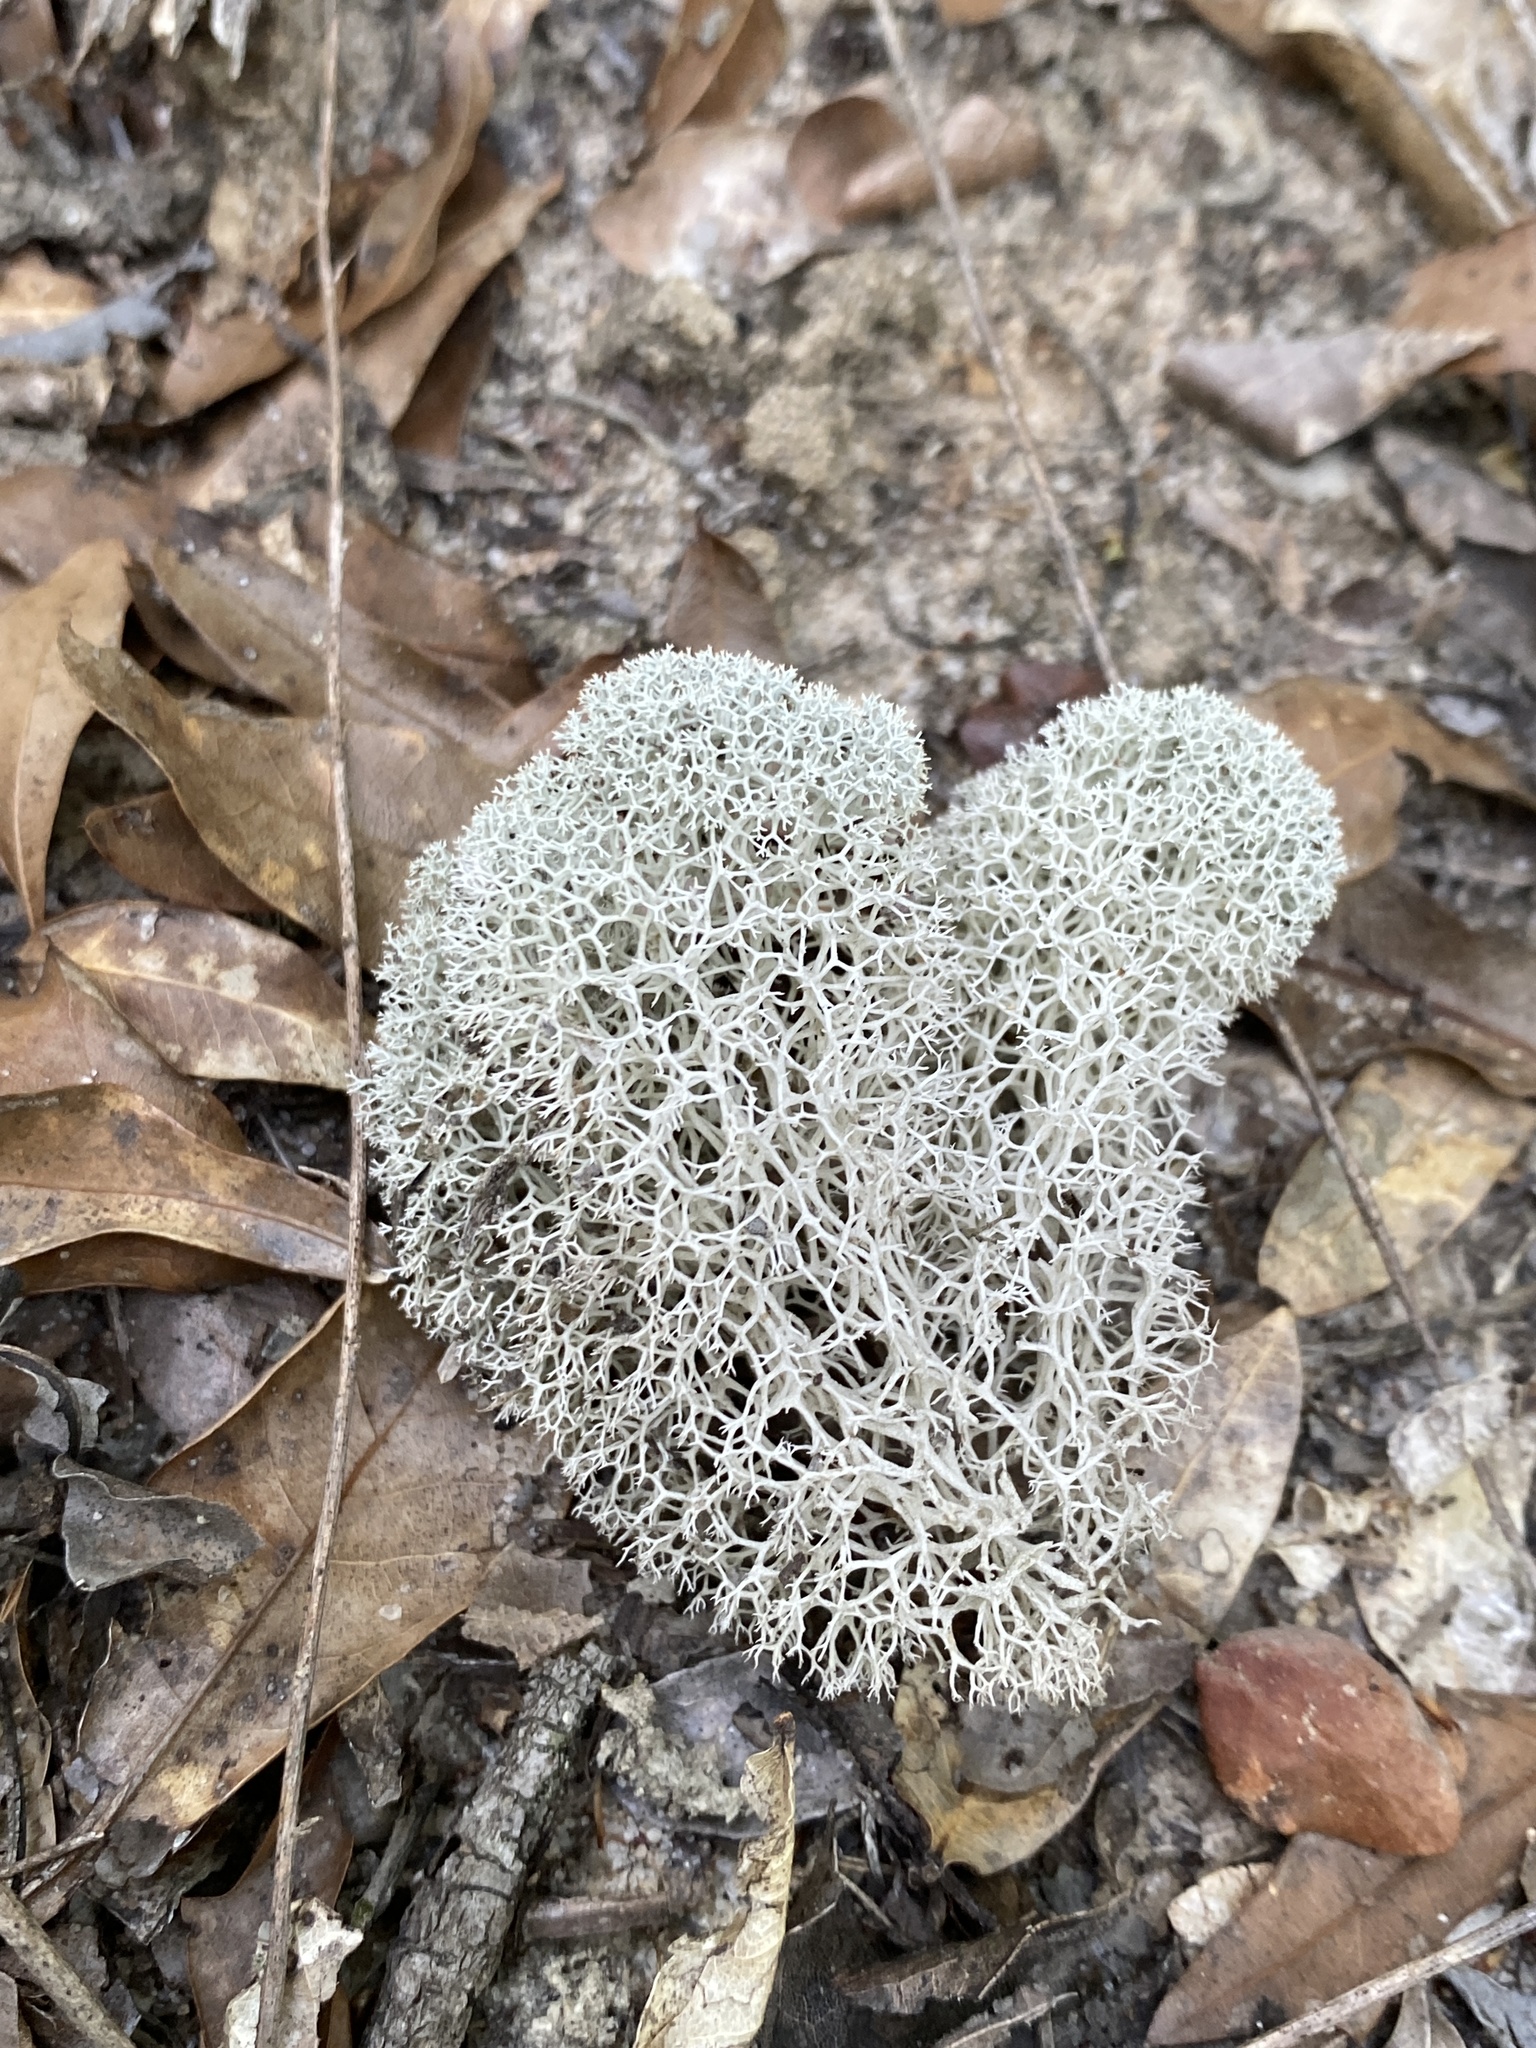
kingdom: Fungi
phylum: Ascomycota
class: Lecanoromycetes
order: Lecanorales
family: Cladoniaceae
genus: Cladonia
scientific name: Cladonia evansii
